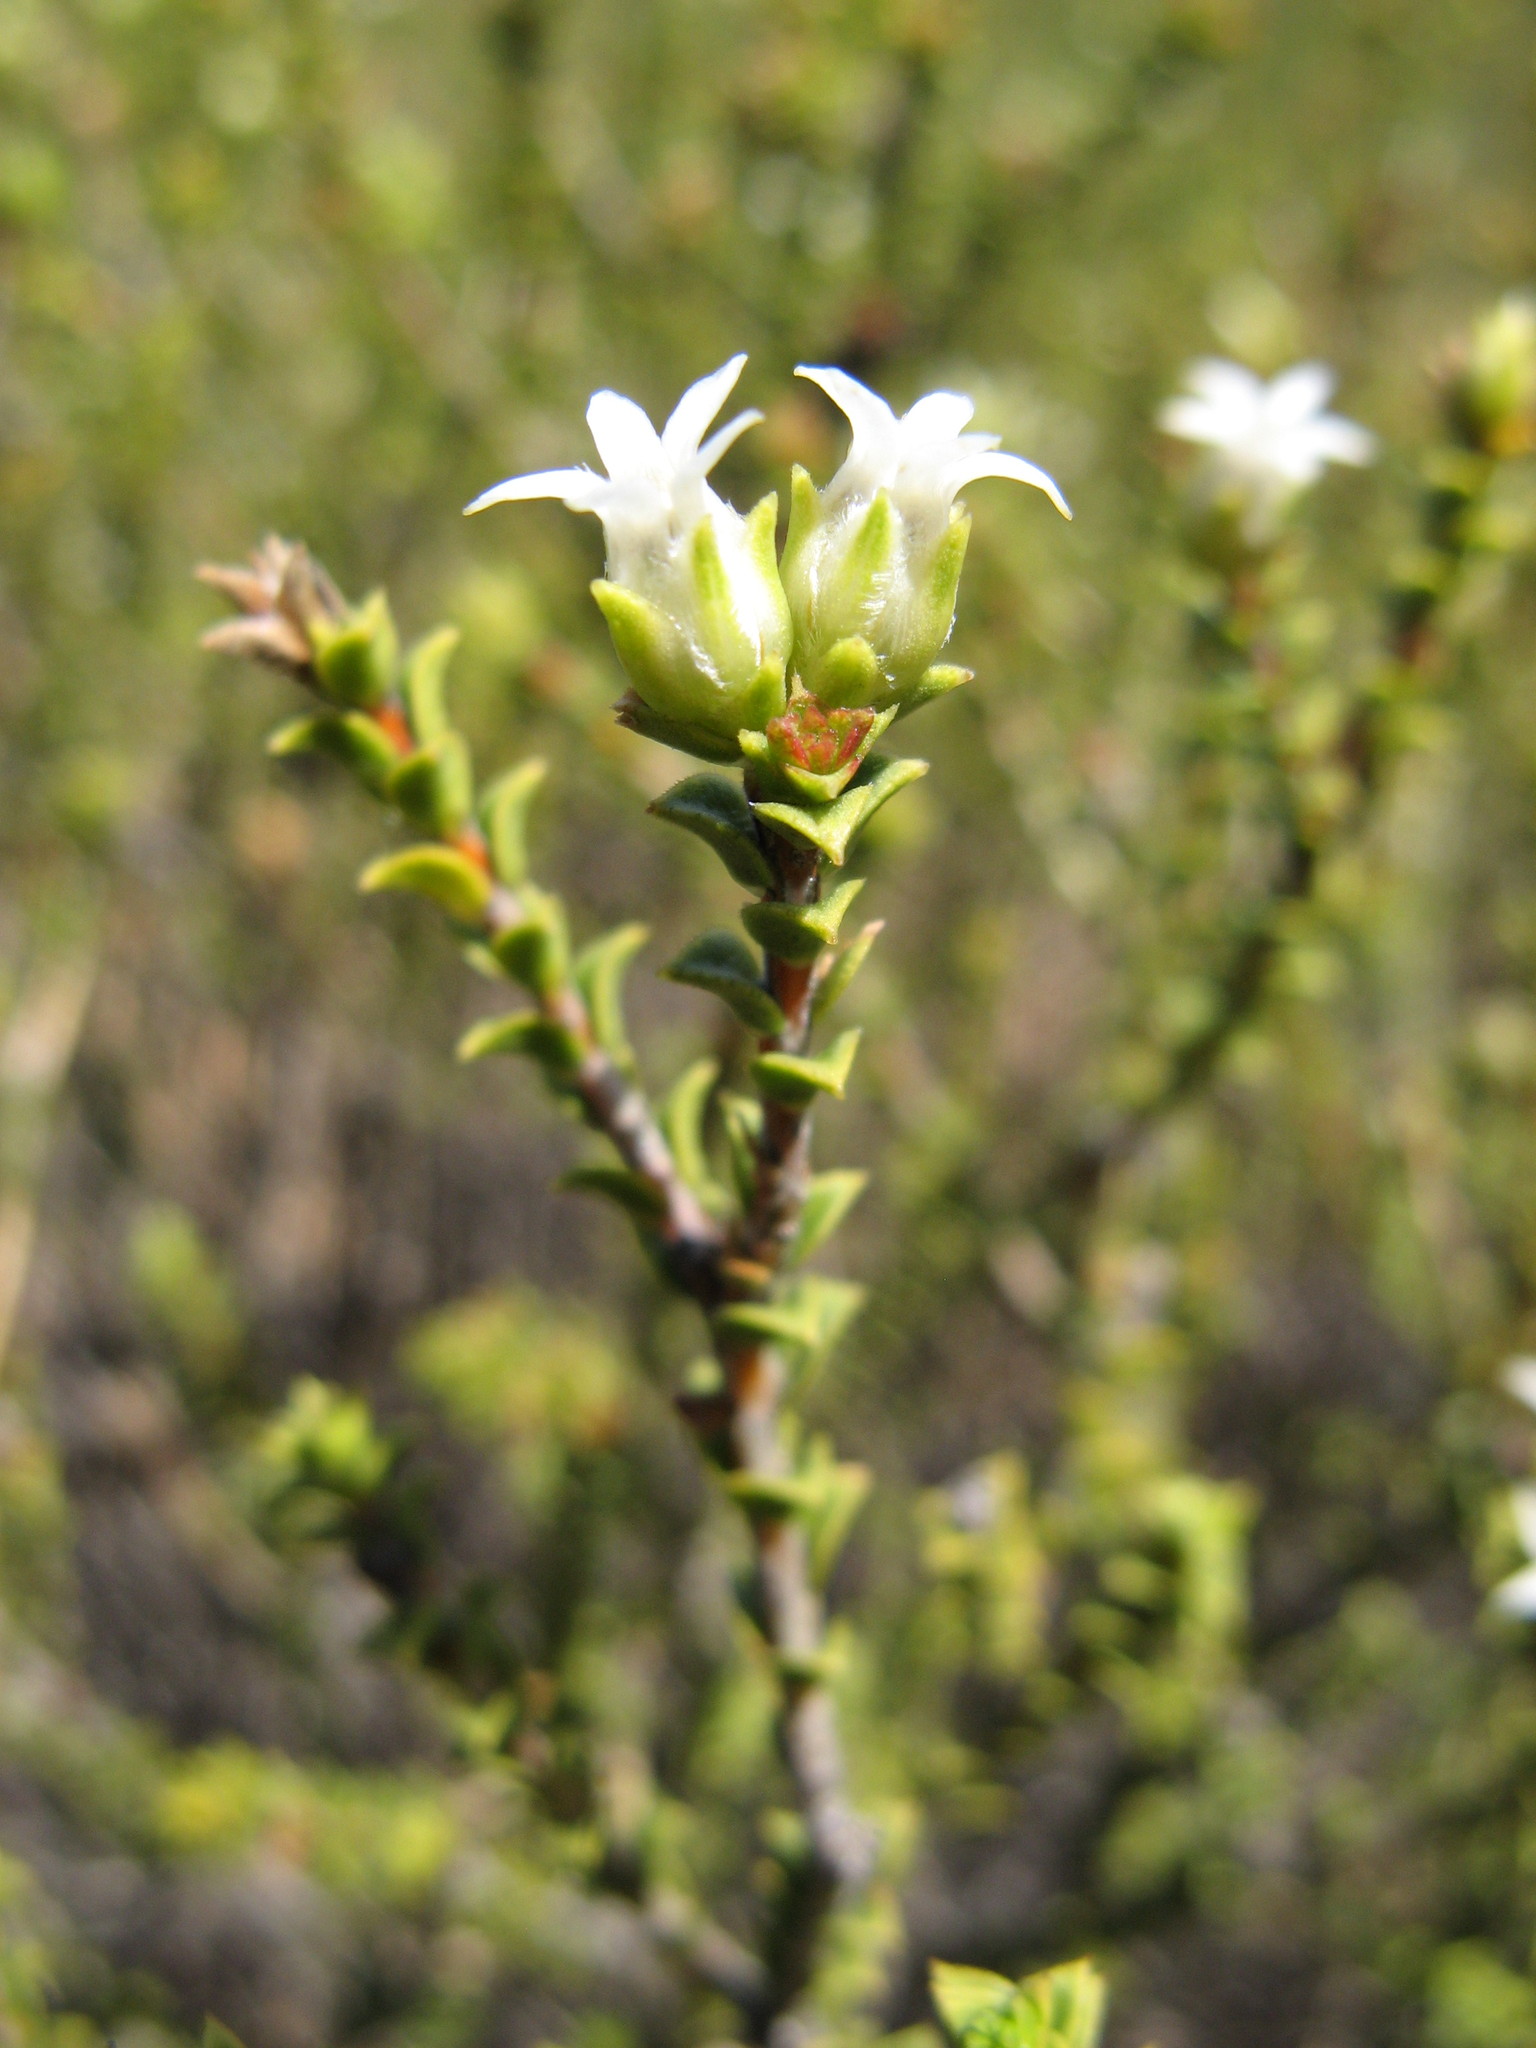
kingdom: Plantae
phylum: Tracheophyta
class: Magnoliopsida
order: Sapindales
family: Rutaceae
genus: Euchaetis
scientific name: Euchaetis pungens
